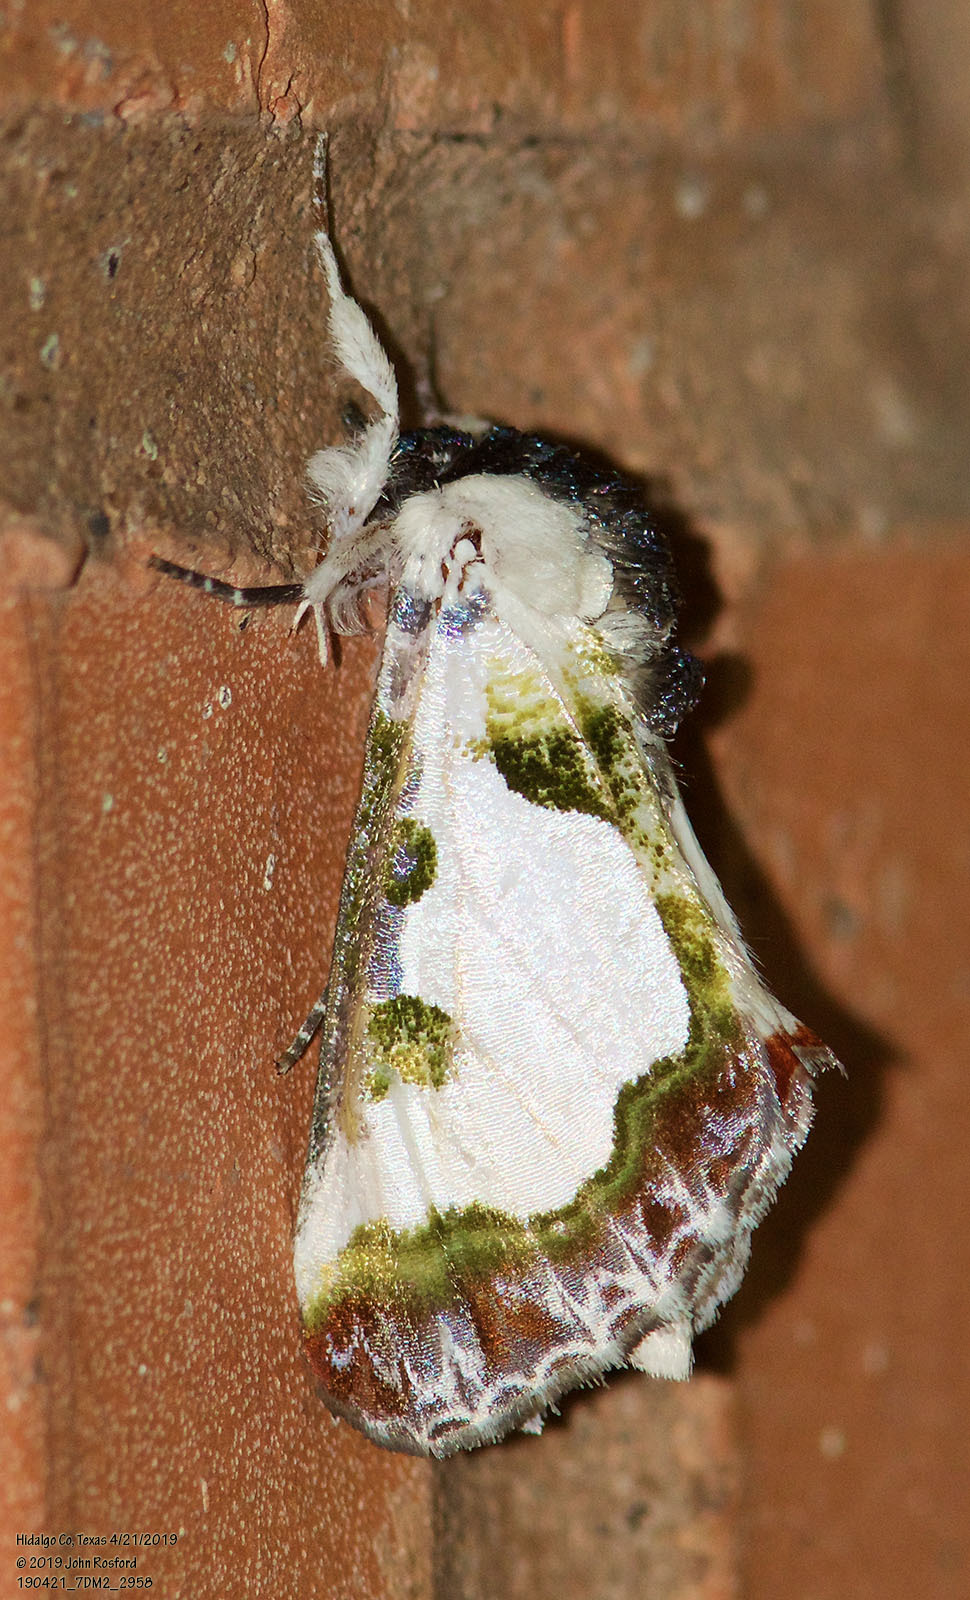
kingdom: Animalia
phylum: Arthropoda
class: Insecta
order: Lepidoptera
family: Noctuidae
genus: Xerociris
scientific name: Xerociris wilsonii
